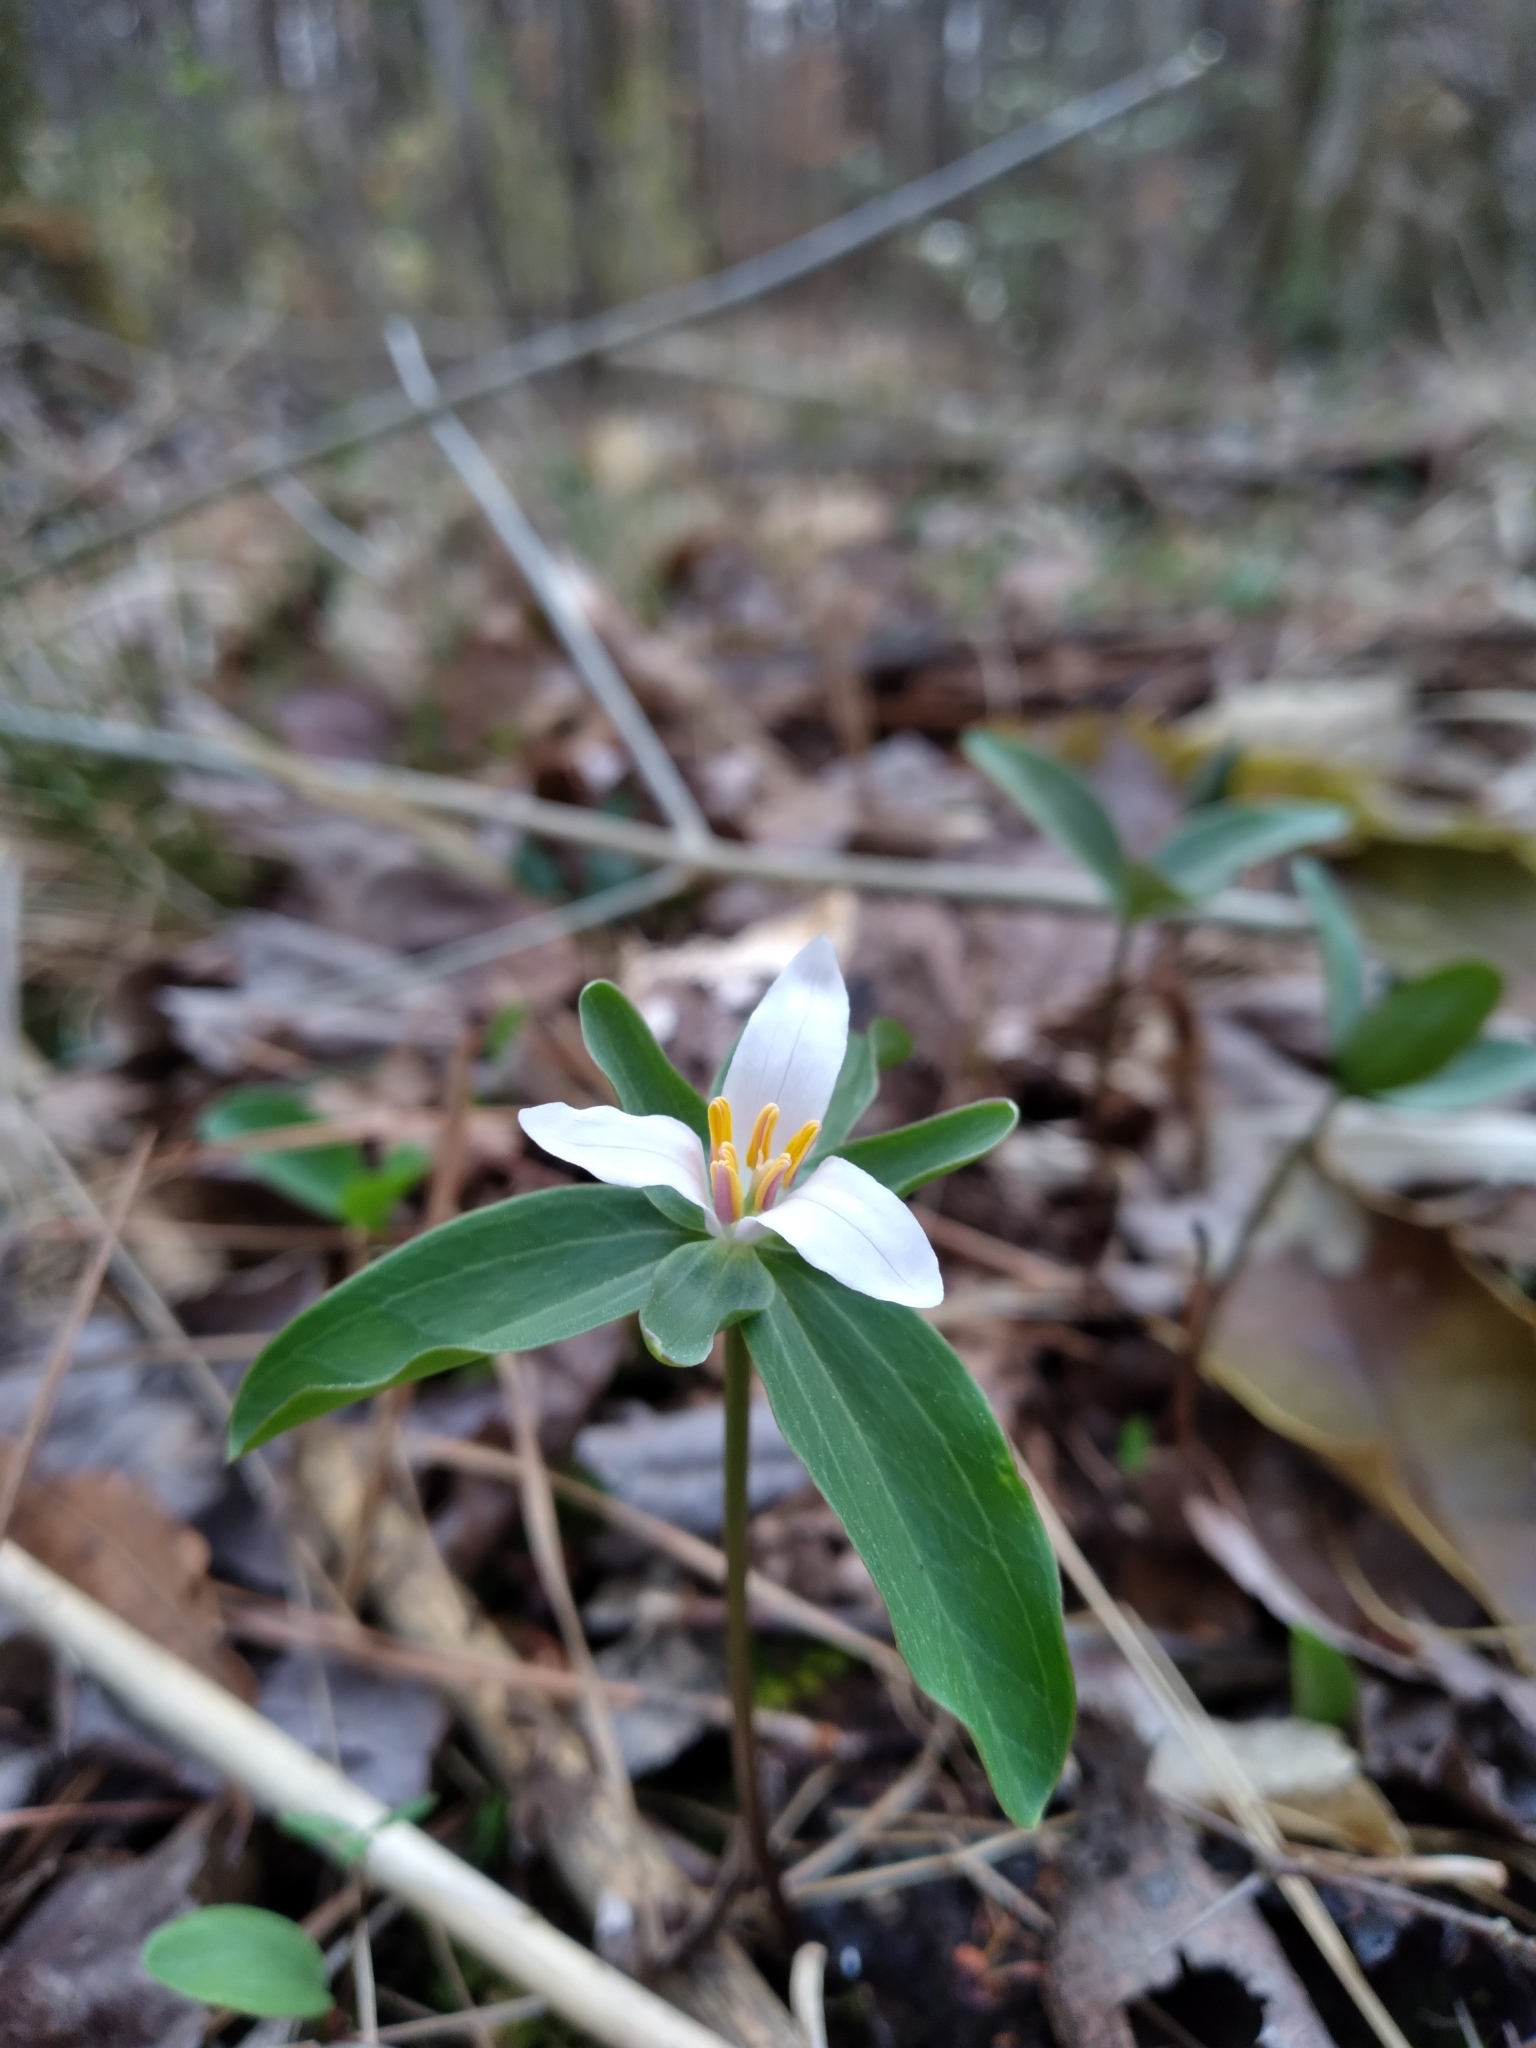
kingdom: Plantae
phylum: Tracheophyta
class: Liliopsida
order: Liliales
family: Melanthiaceae
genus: Trillium
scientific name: Trillium pusillum
